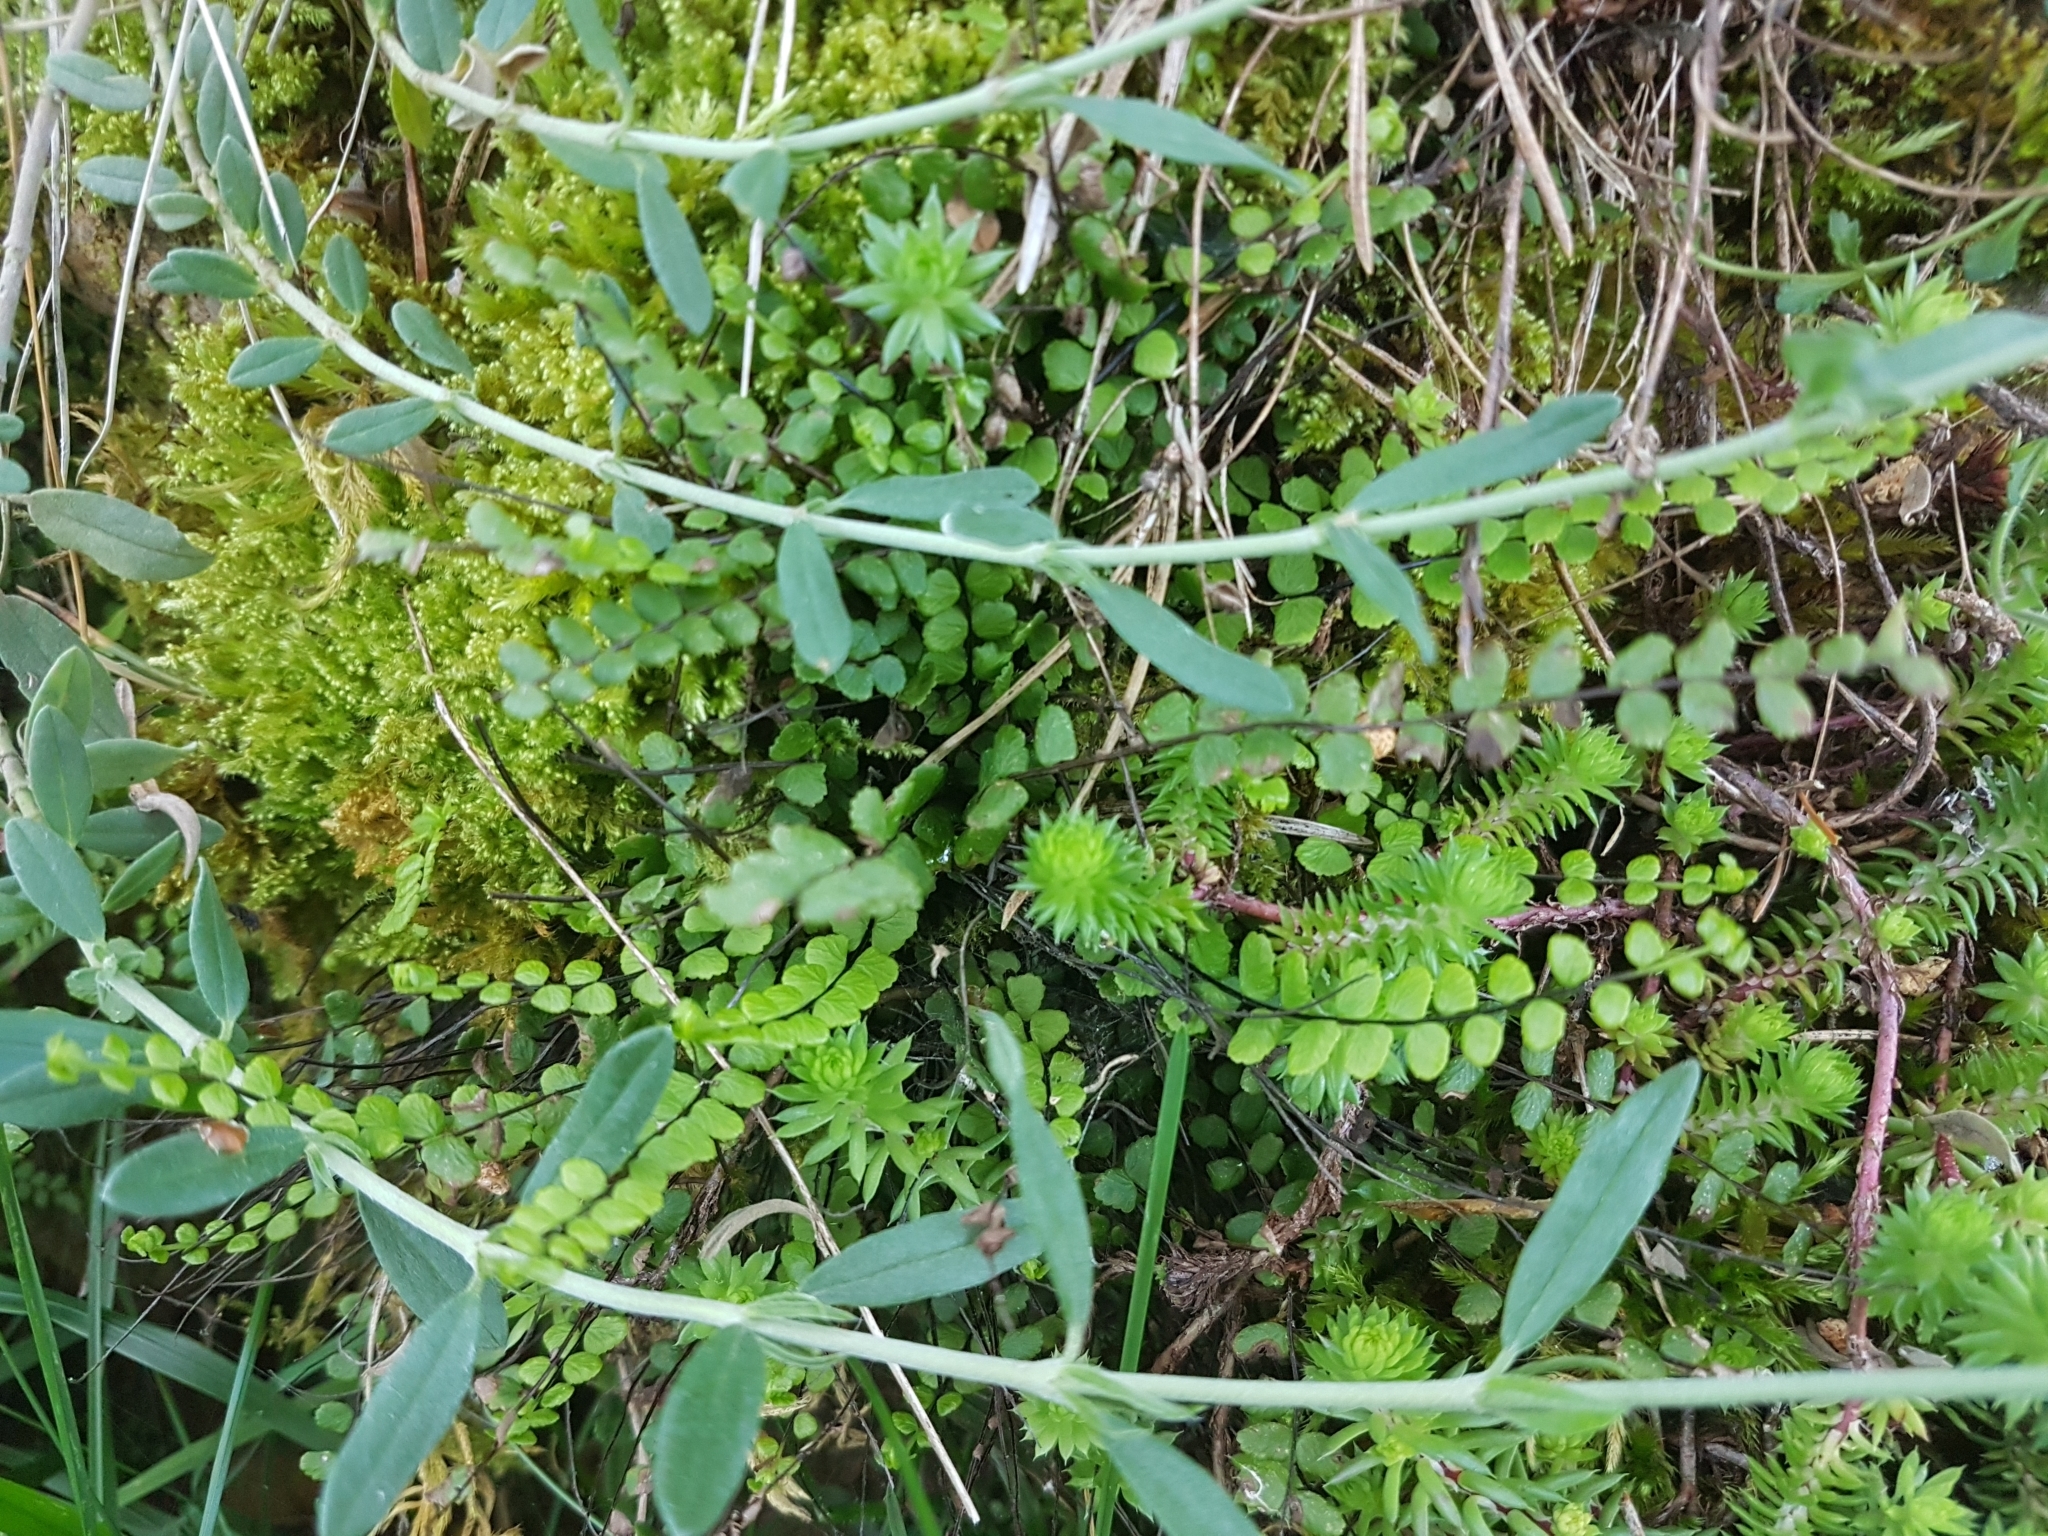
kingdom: Plantae
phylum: Tracheophyta
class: Polypodiopsida
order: Polypodiales
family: Aspleniaceae
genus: Asplenium
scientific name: Asplenium trichomanes
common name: Maidenhair spleenwort
